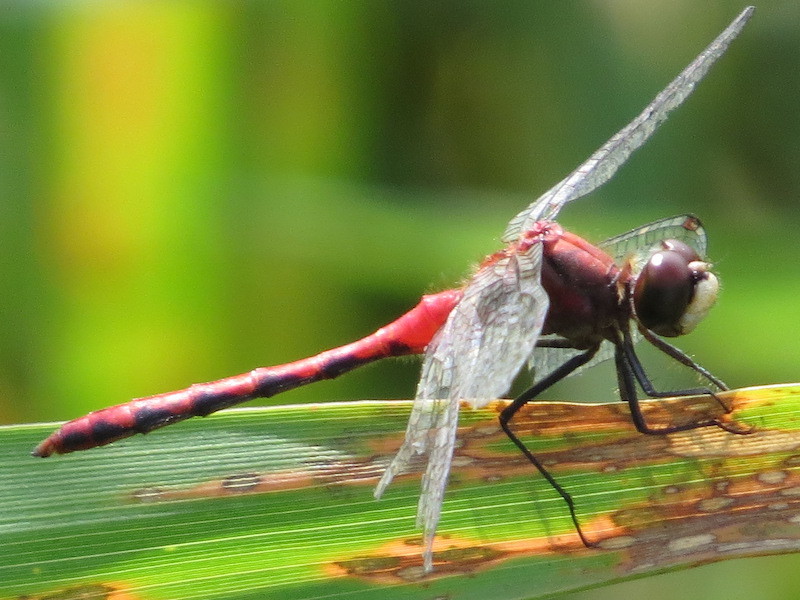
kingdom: Animalia
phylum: Arthropoda
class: Insecta
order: Odonata
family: Libellulidae
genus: Sympetrum
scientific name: Sympetrum obtrusum
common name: White-faced meadowhawk
